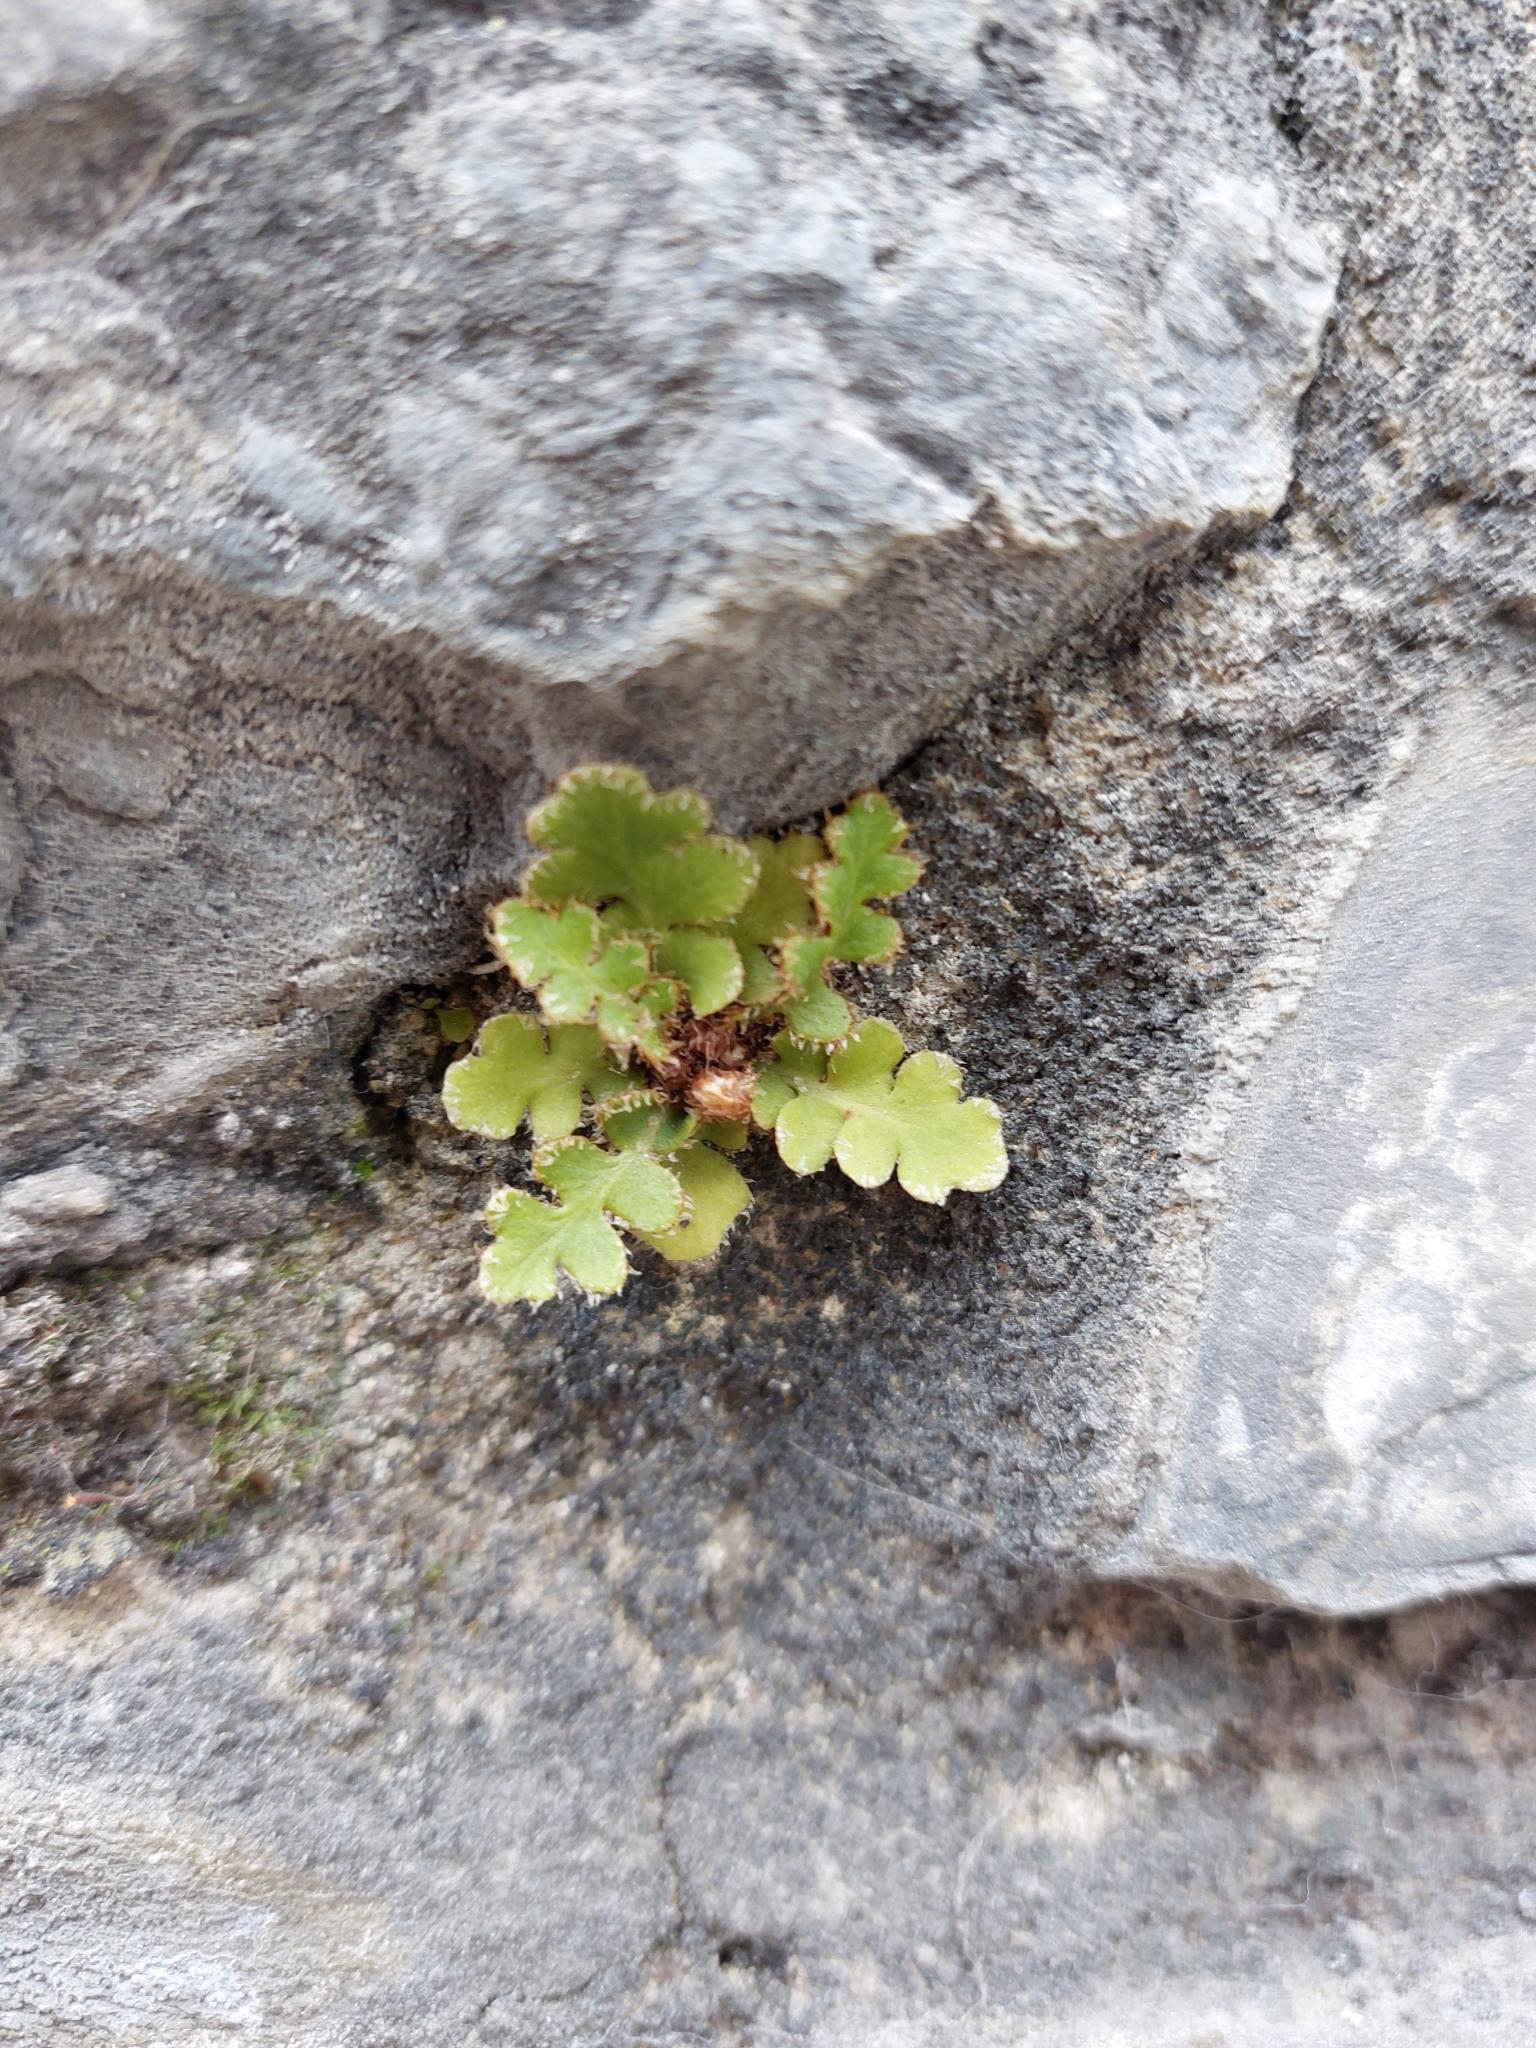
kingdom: Plantae
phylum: Tracheophyta
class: Polypodiopsida
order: Polypodiales
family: Aspleniaceae
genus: Asplenium
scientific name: Asplenium ceterach
